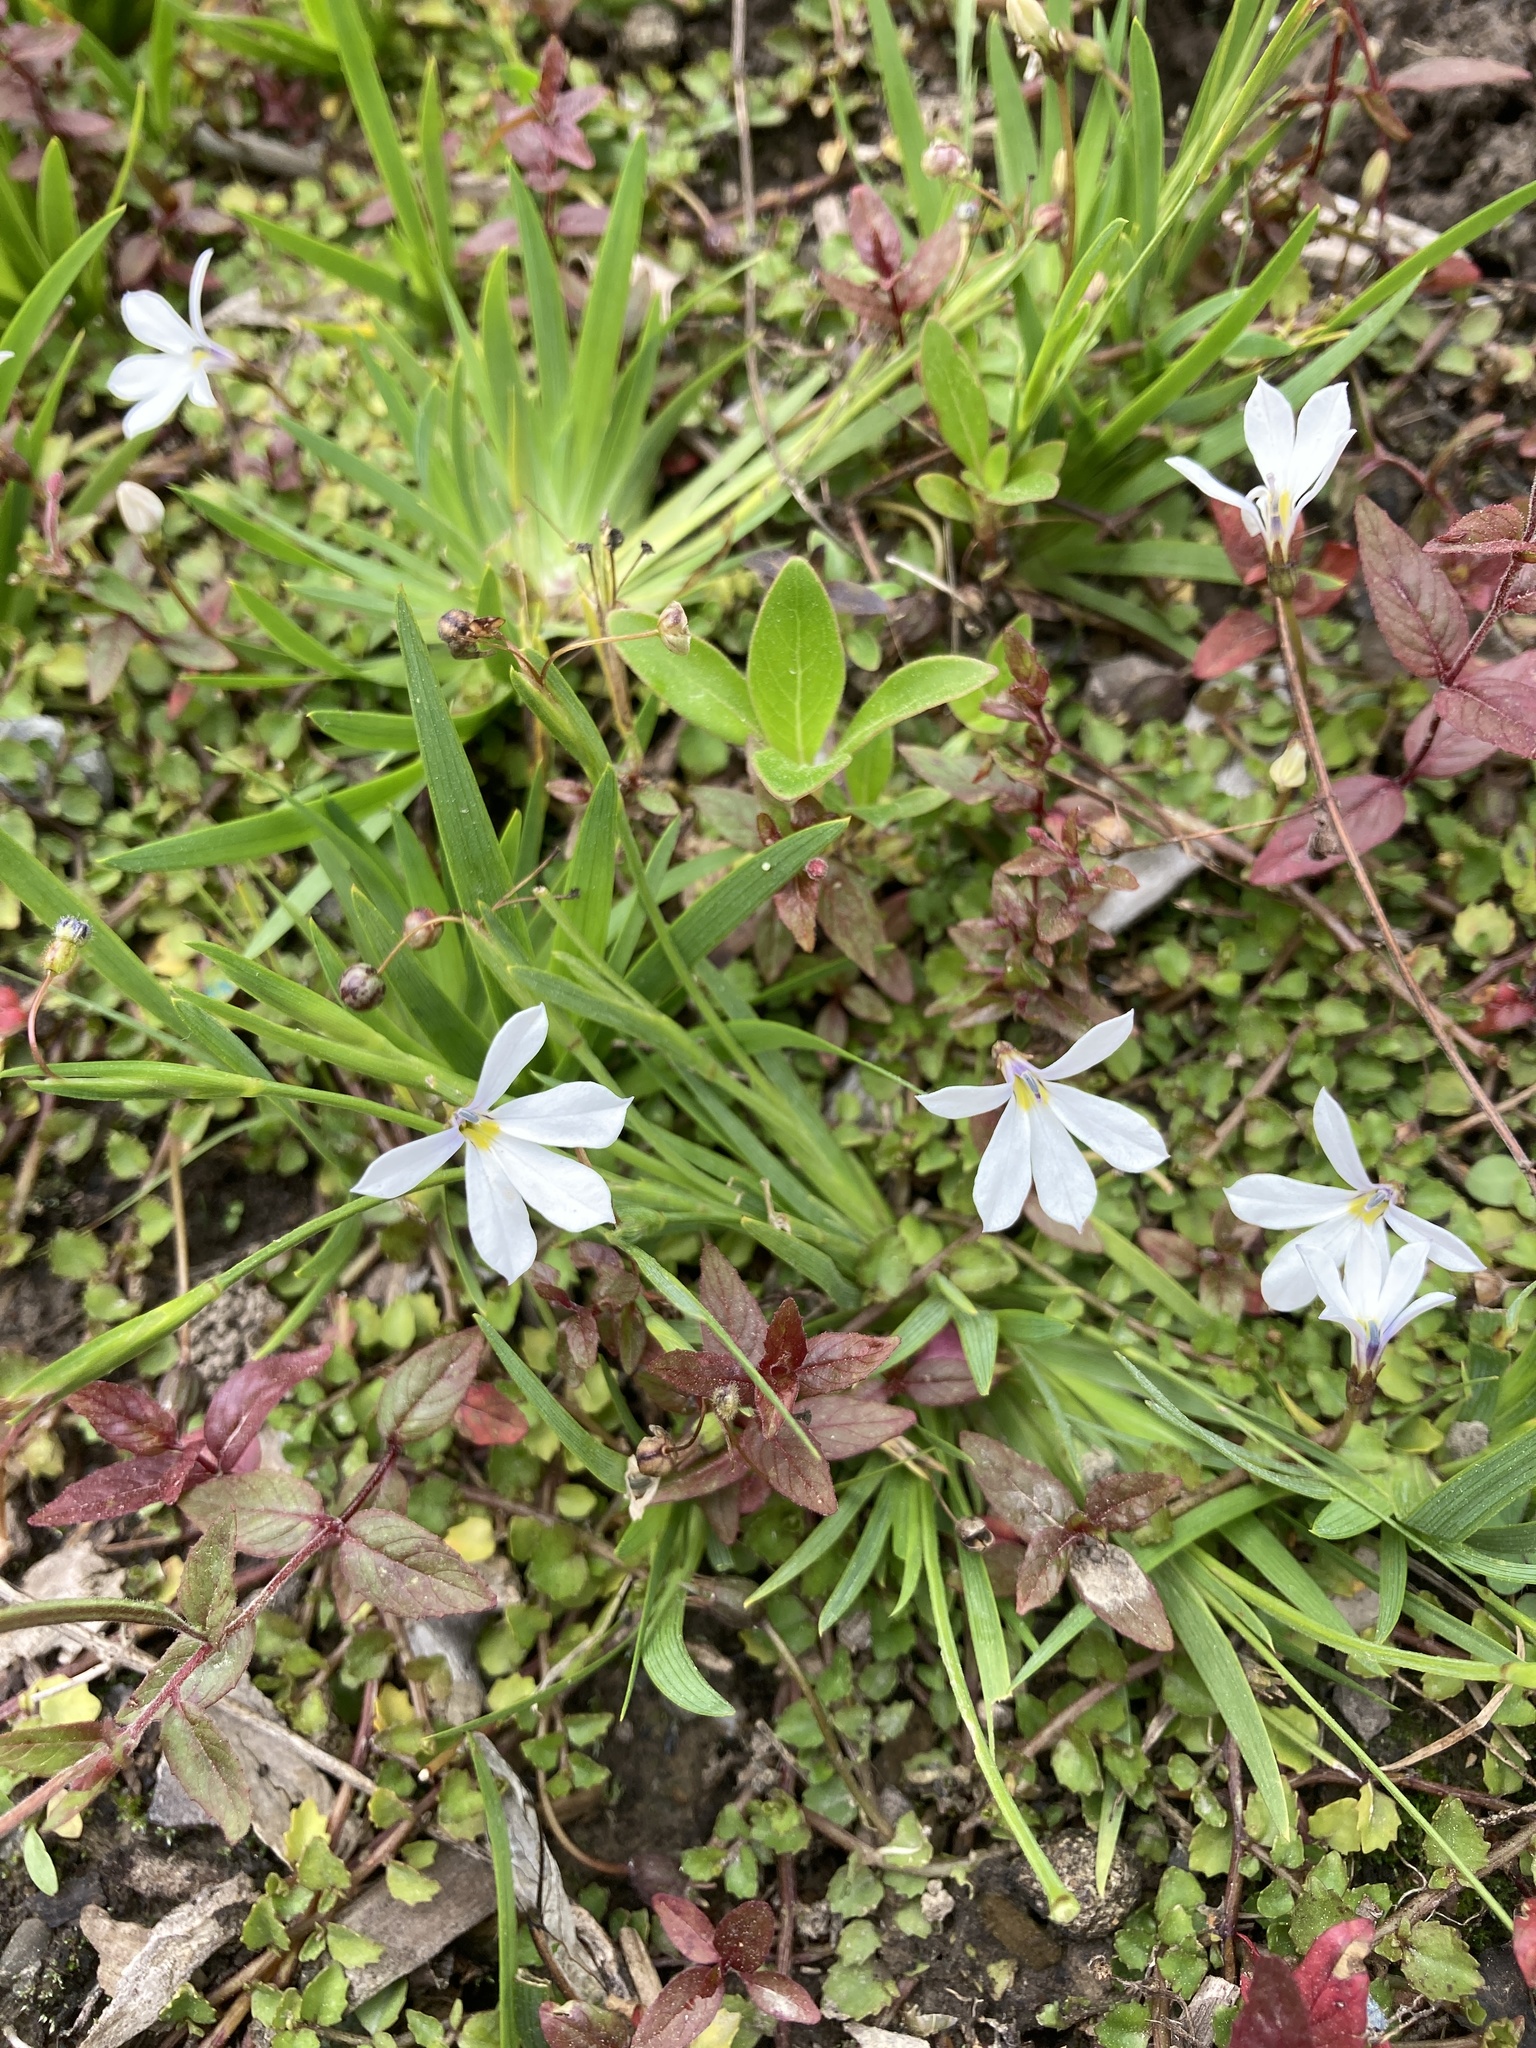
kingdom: Plantae
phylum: Tracheophyta
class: Magnoliopsida
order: Asterales
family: Campanulaceae
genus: Lobelia
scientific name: Lobelia angulata
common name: Lawn lobelia
